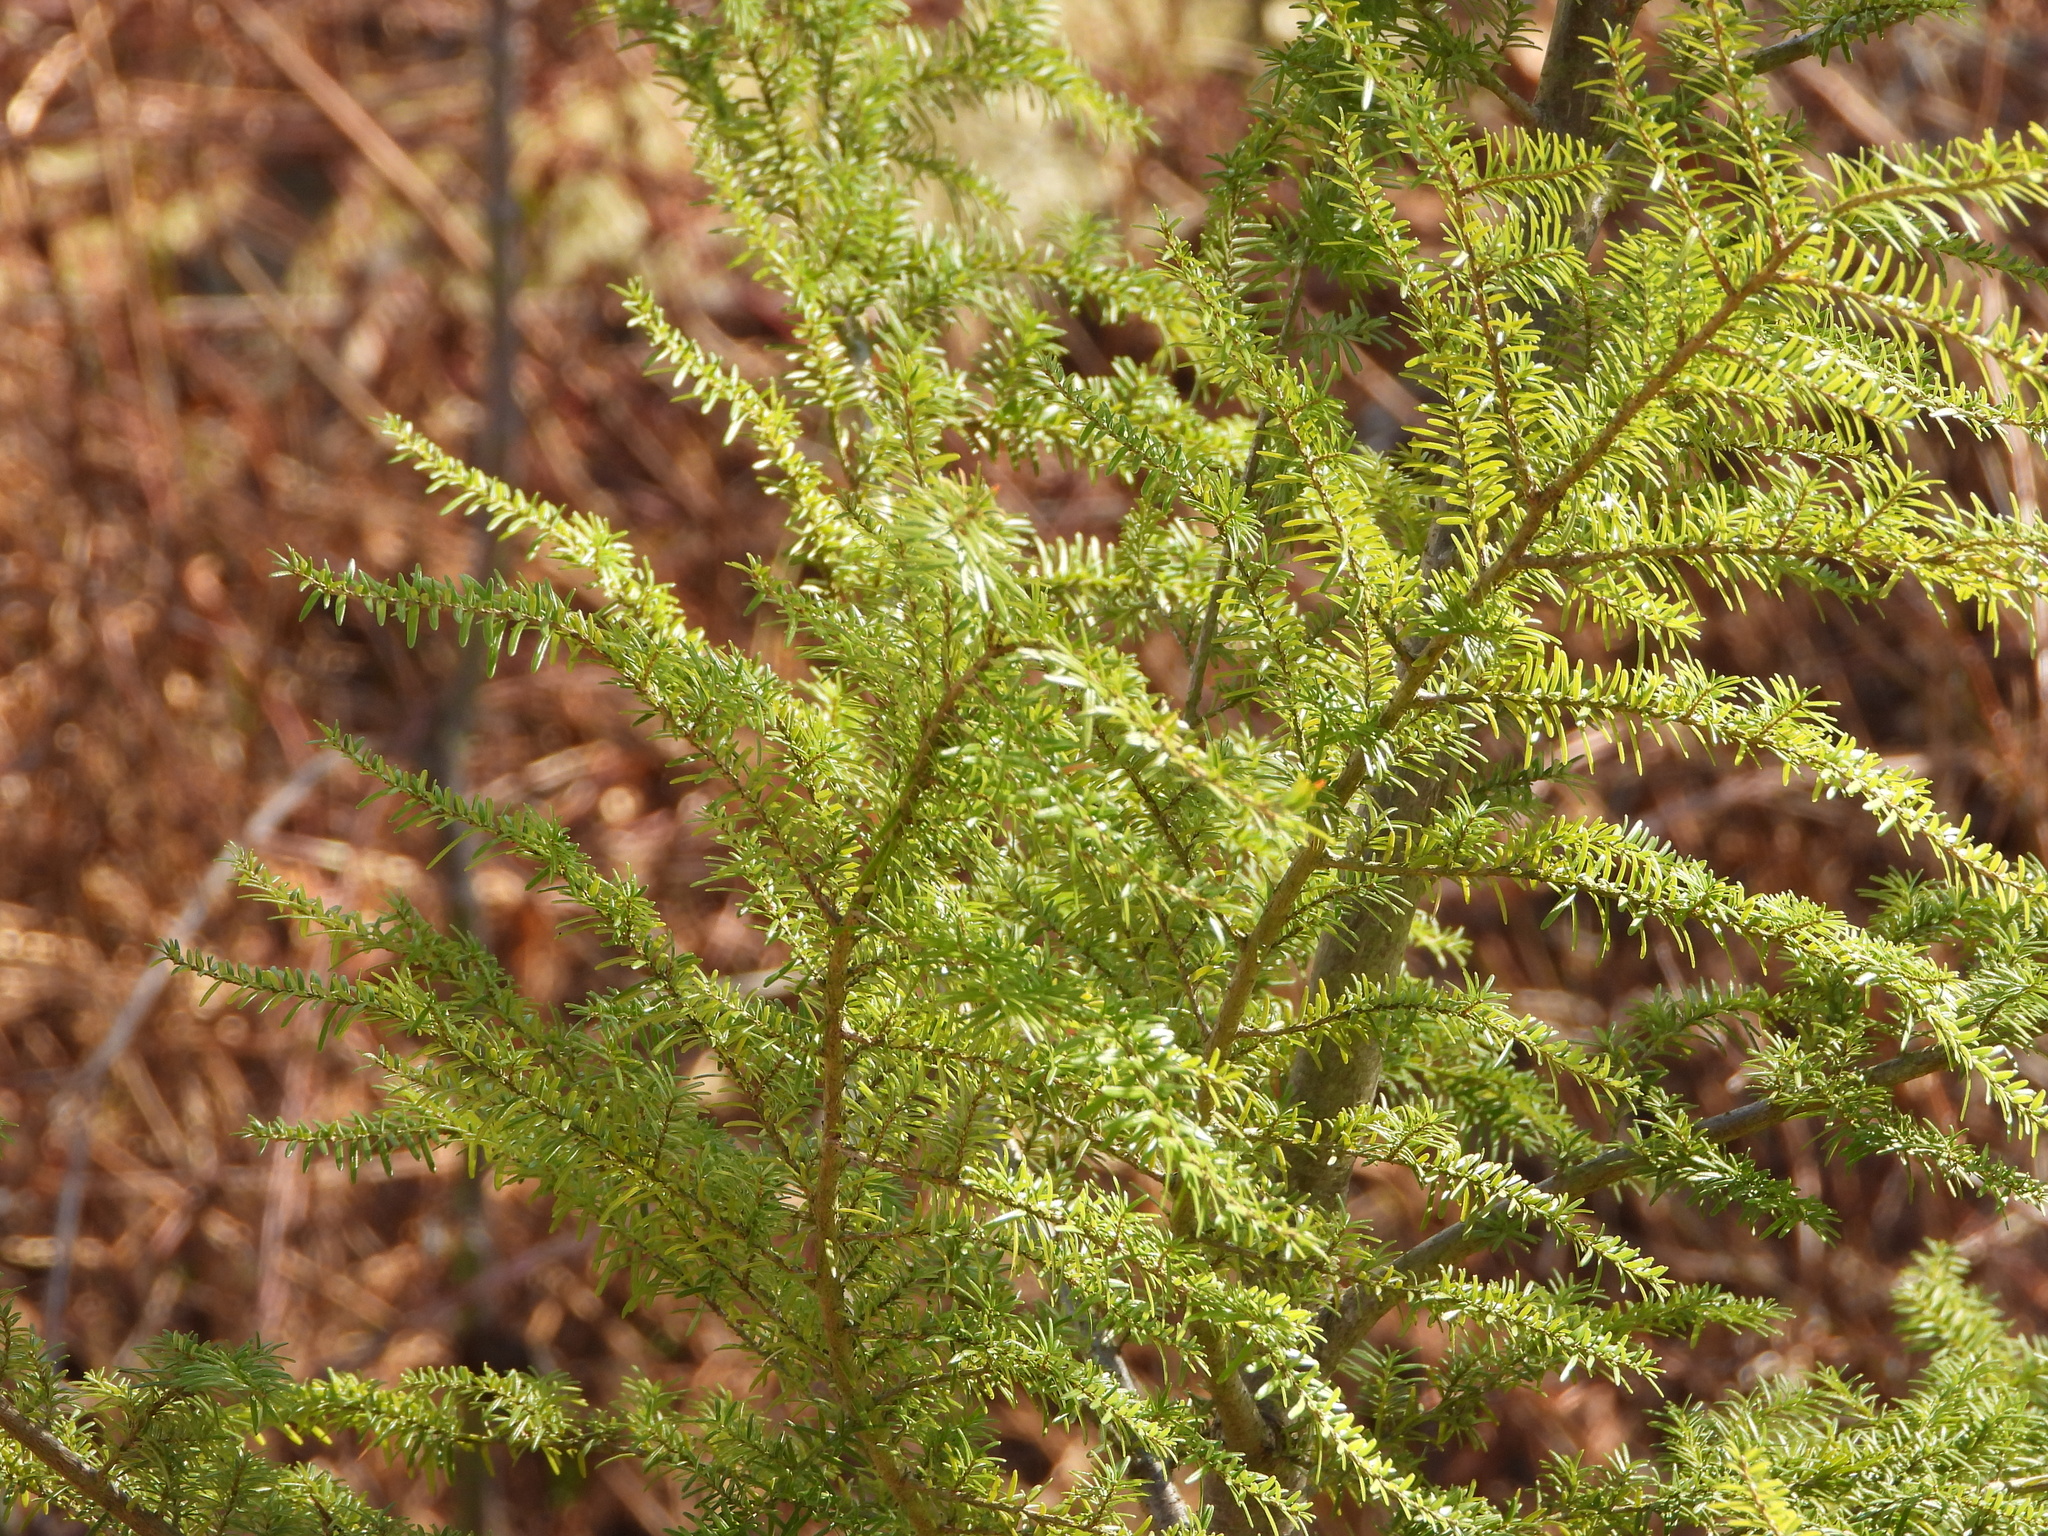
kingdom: Plantae
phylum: Tracheophyta
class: Pinopsida
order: Pinales
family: Pinaceae
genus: Tsuga
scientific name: Tsuga heterophylla
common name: Western hemlock
